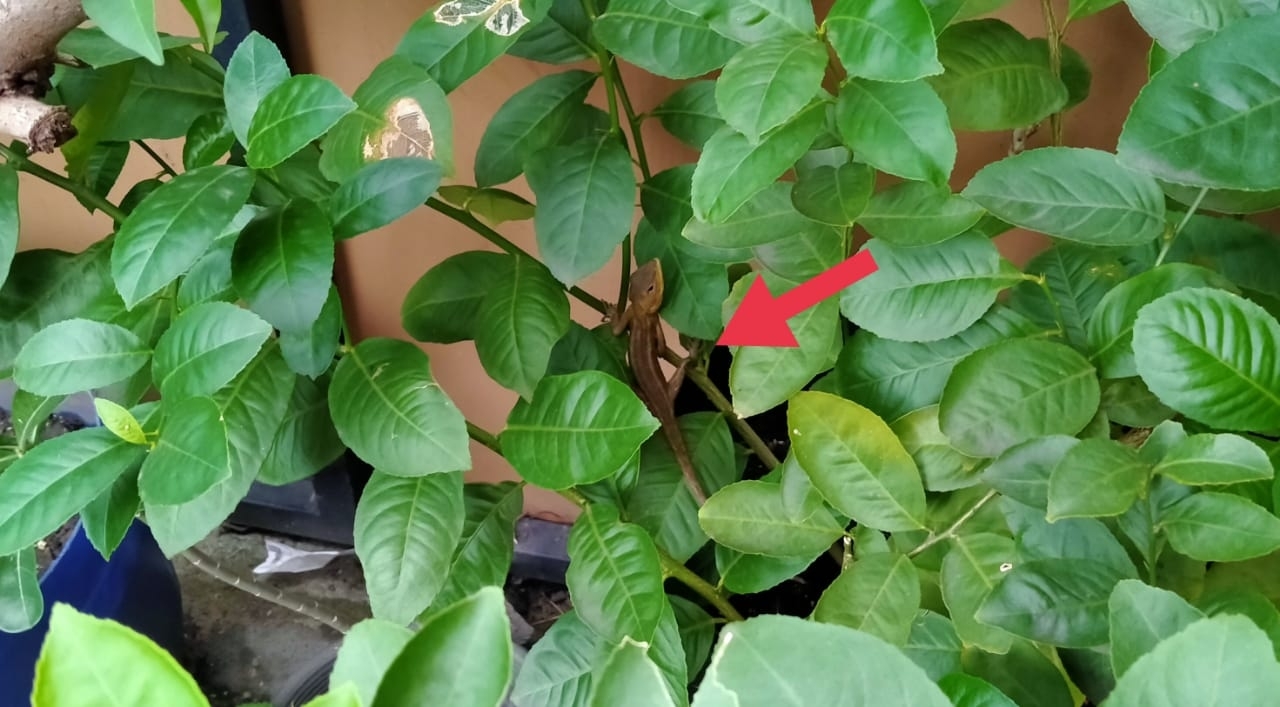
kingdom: Animalia
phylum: Chordata
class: Squamata
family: Agamidae
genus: Calotes
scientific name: Calotes versicolor
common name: Oriental garden lizard
